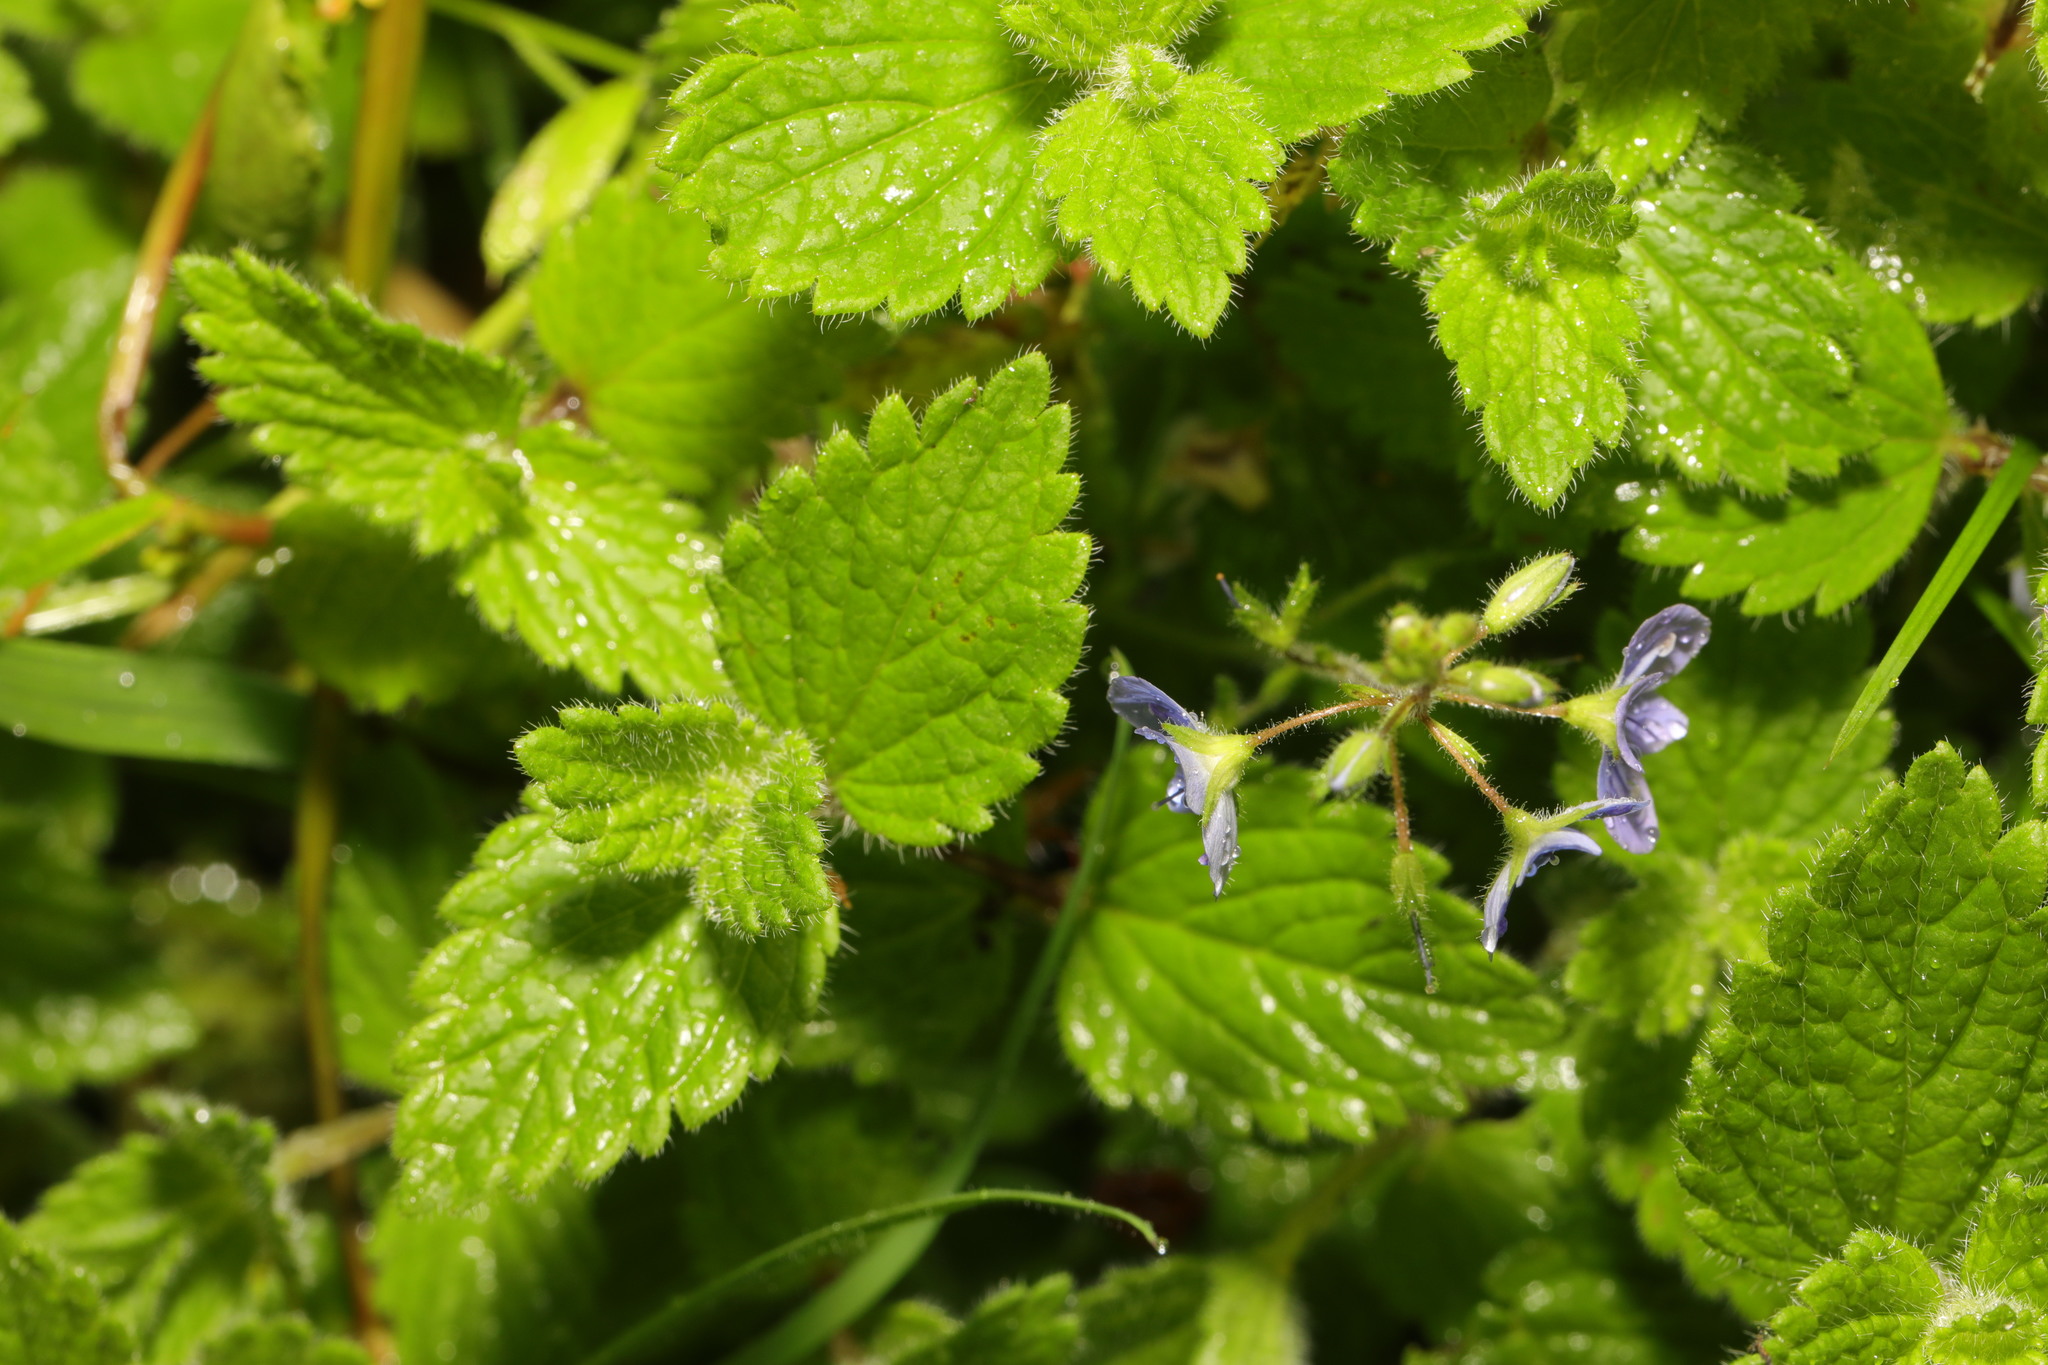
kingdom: Plantae
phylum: Tracheophyta
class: Magnoliopsida
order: Lamiales
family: Plantaginaceae
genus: Veronica
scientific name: Veronica chamaedrys
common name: Germander speedwell
